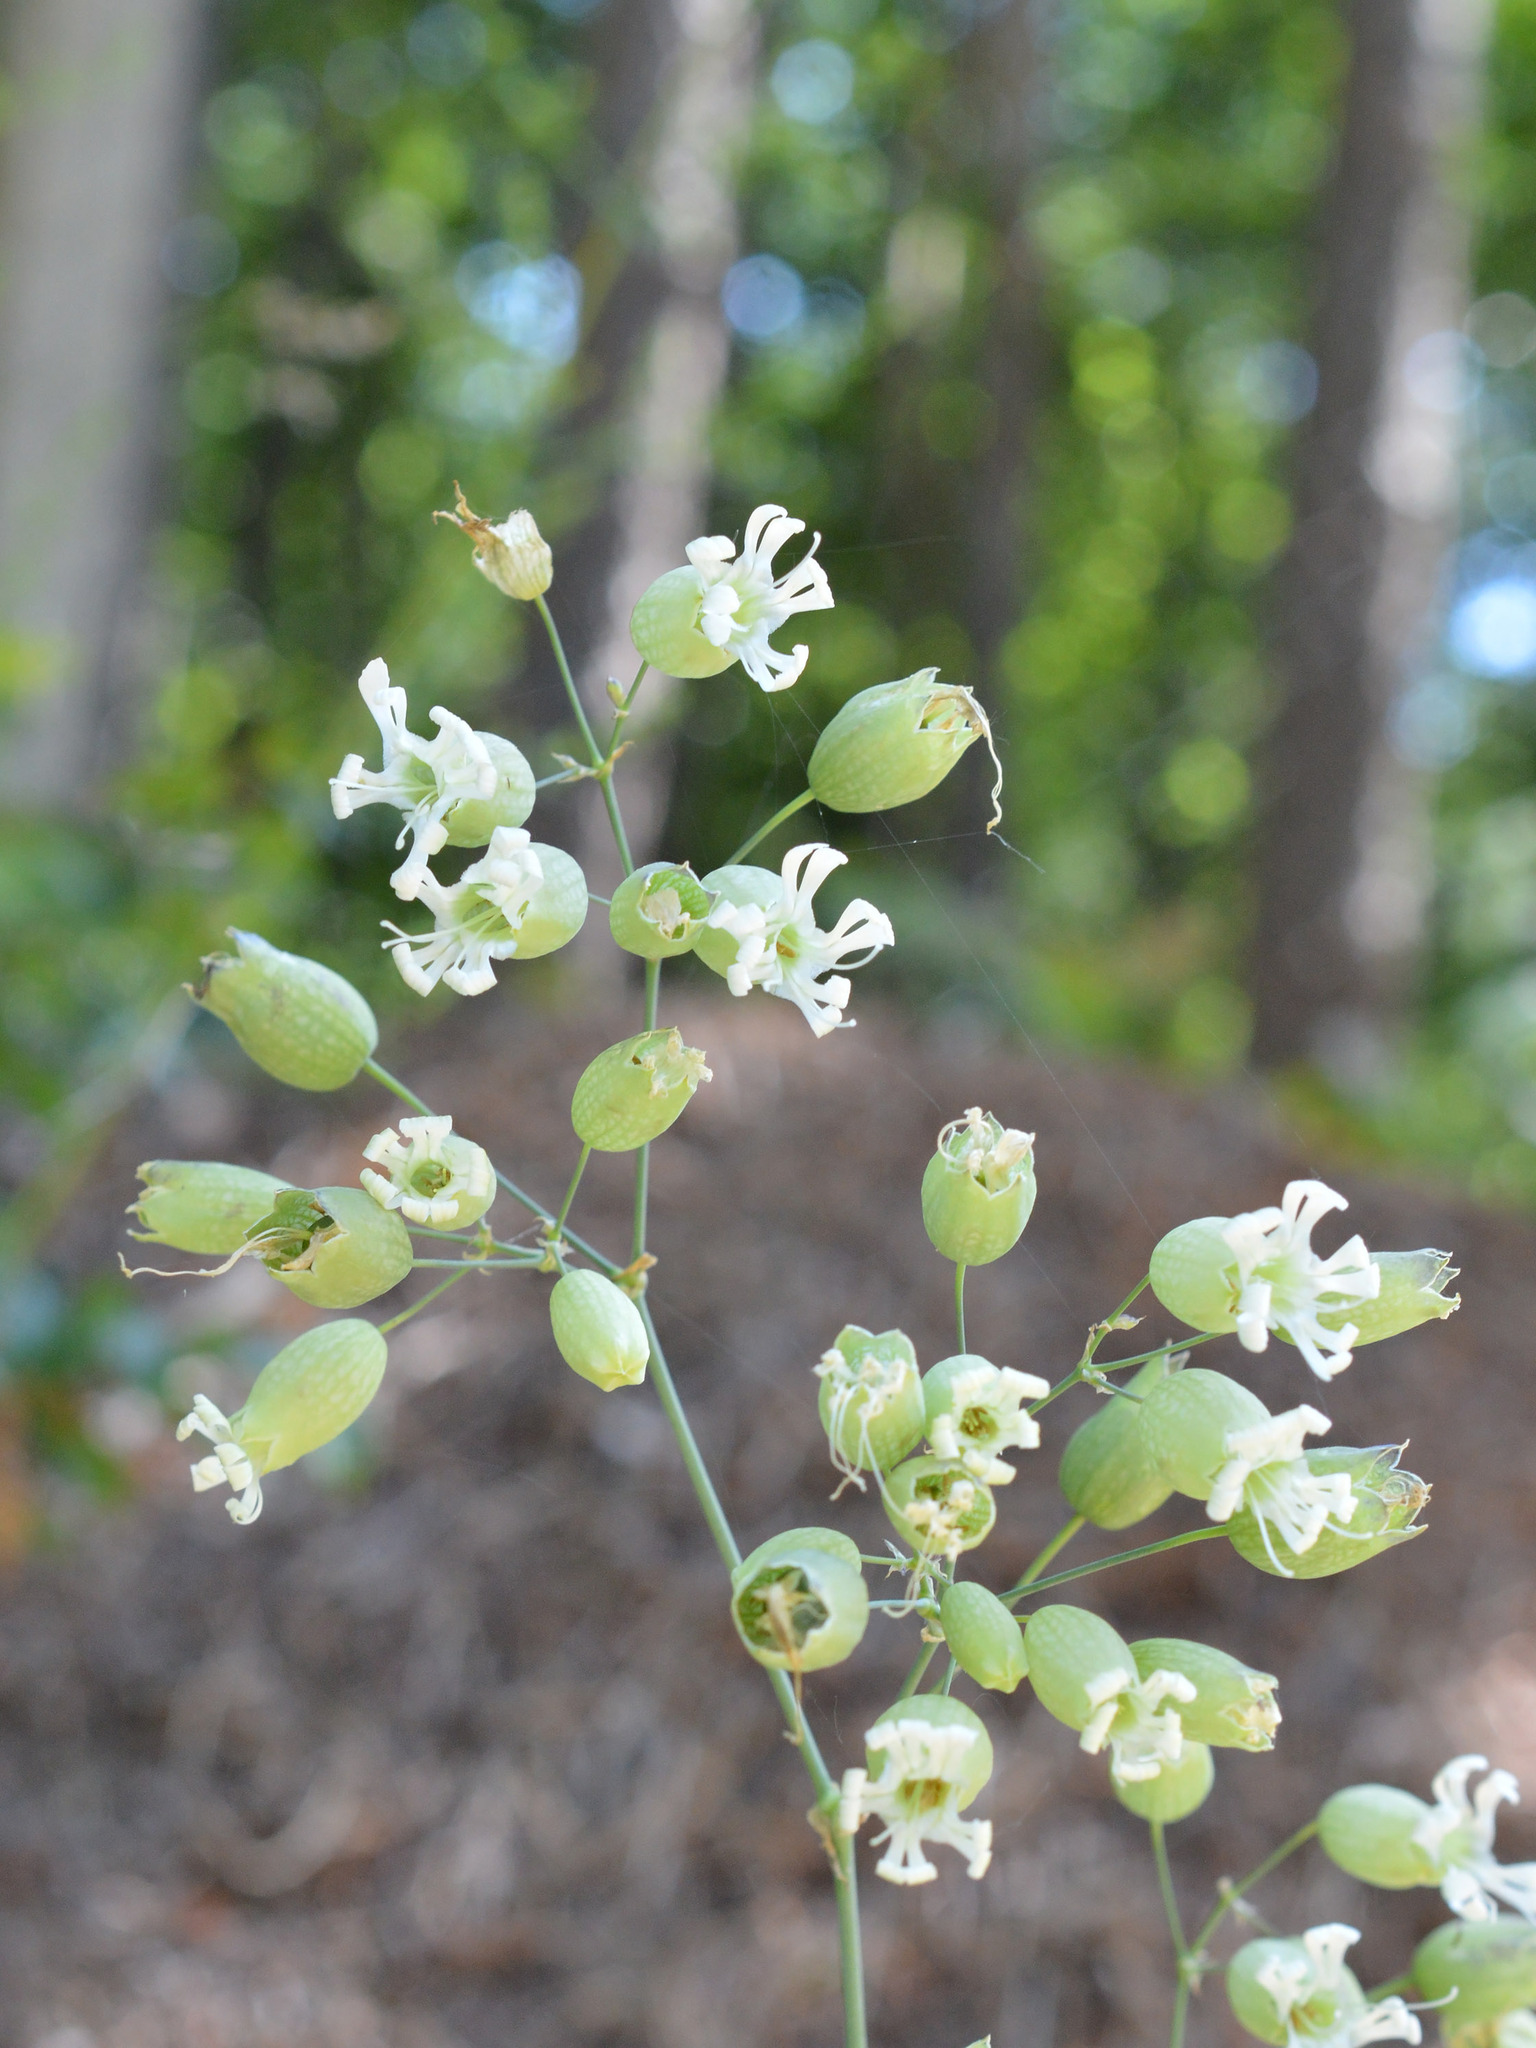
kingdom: Plantae
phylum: Tracheophyta
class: Magnoliopsida
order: Caryophyllales
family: Caryophyllaceae
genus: Silene
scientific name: Silene vulgaris
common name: Bladder campion
